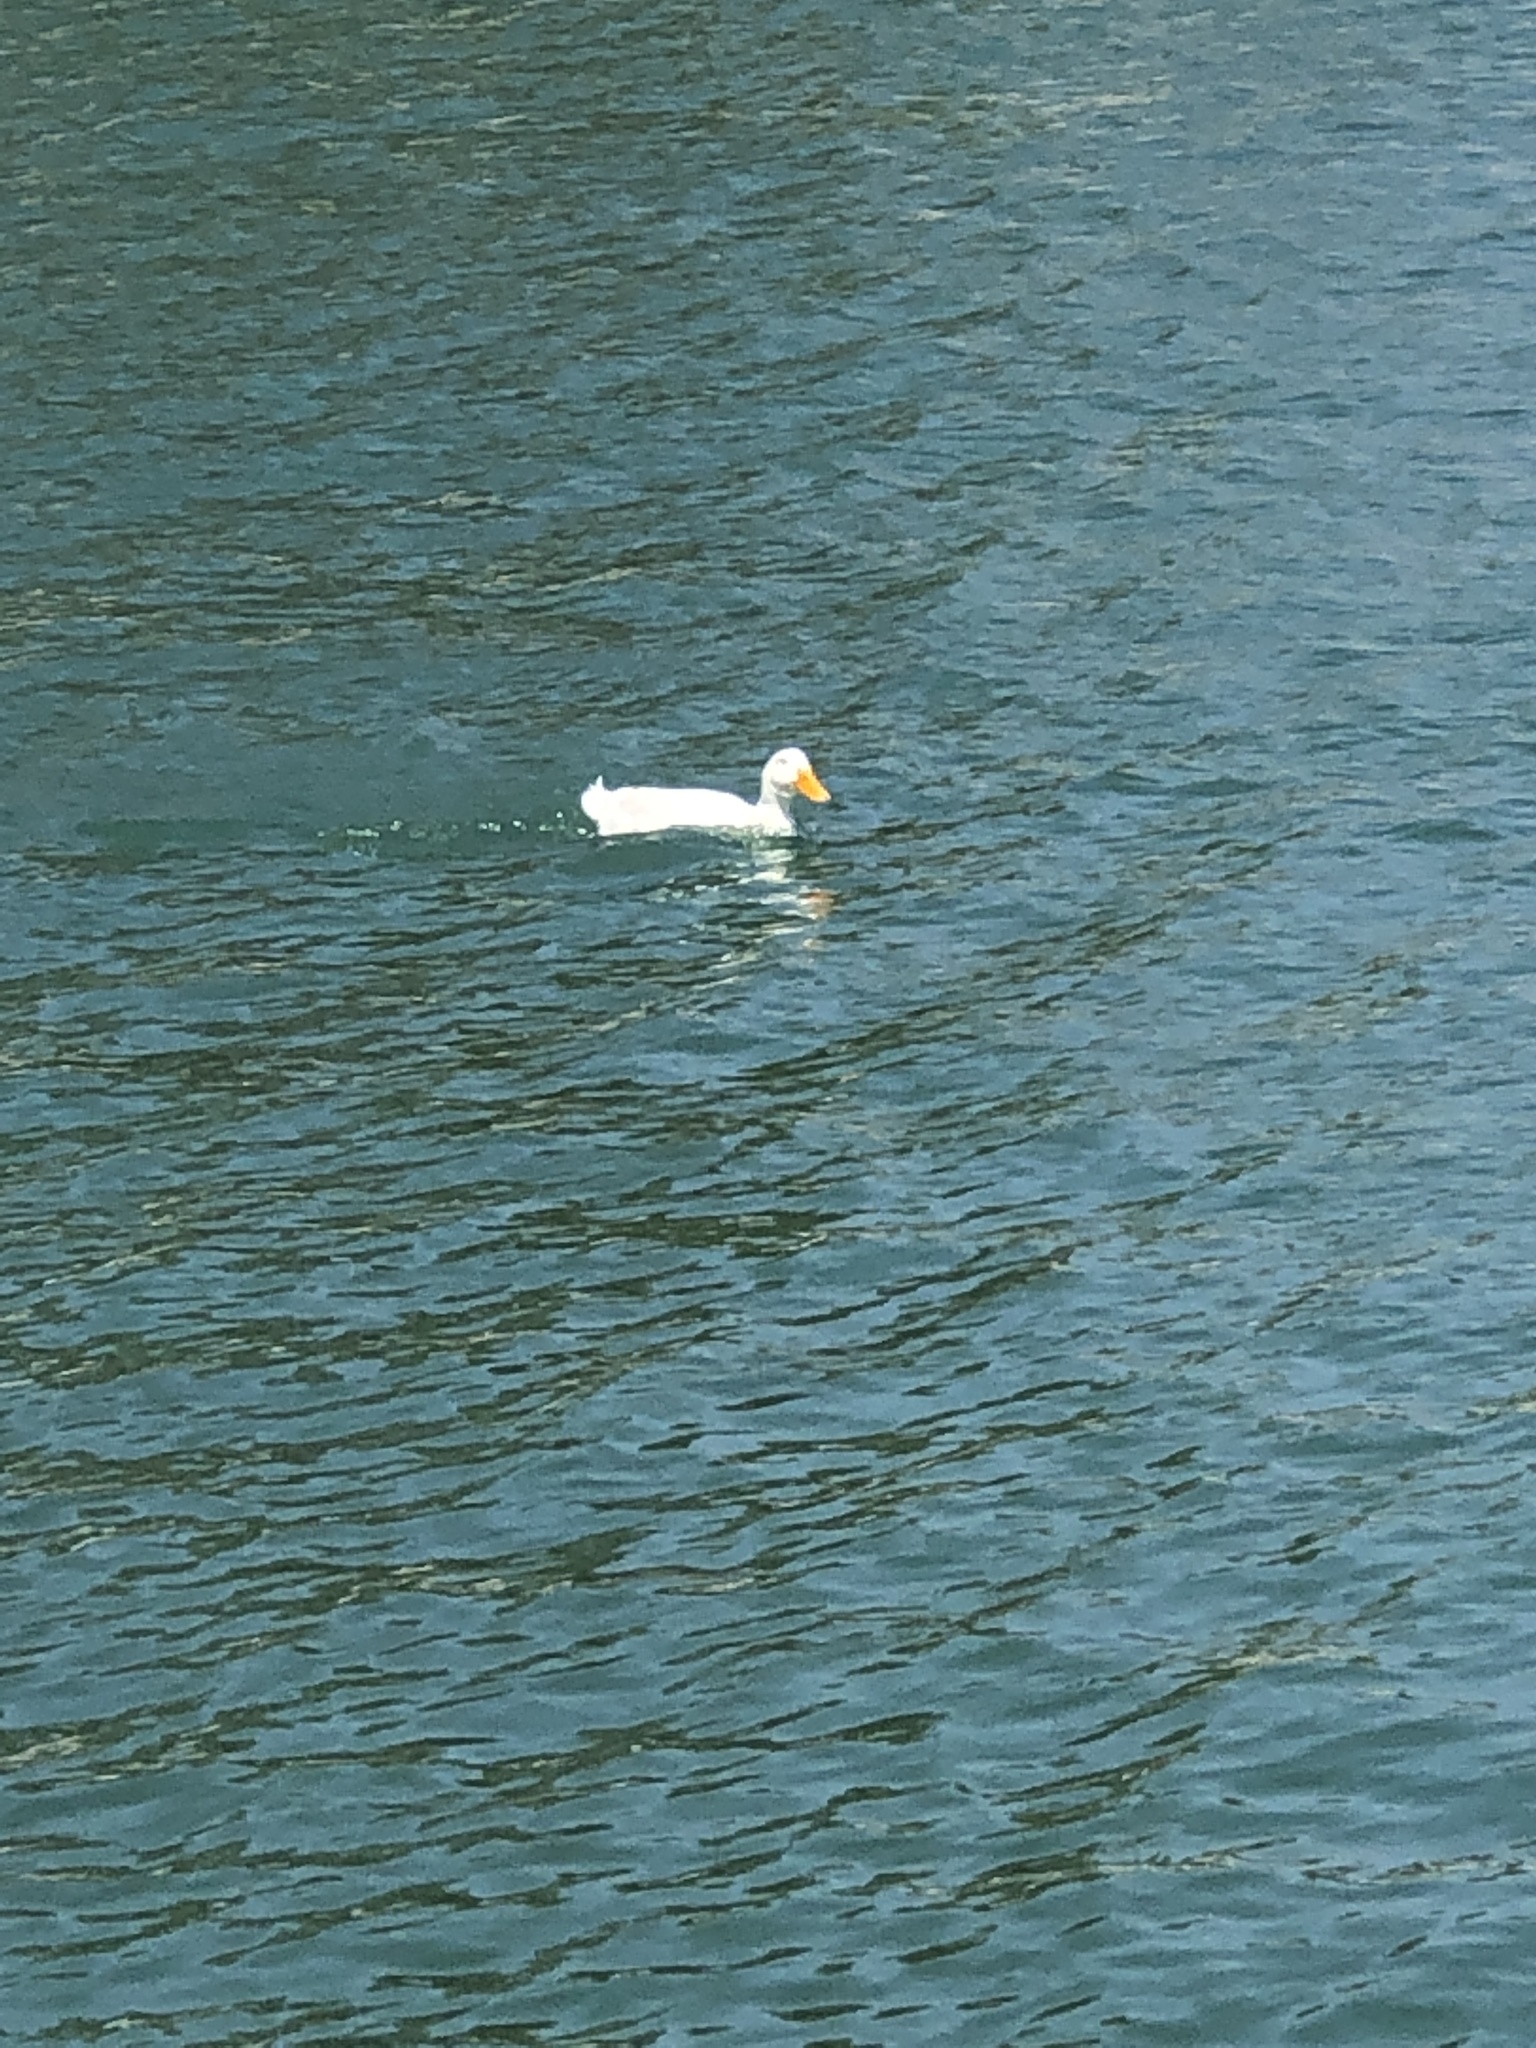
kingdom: Animalia
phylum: Chordata
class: Aves
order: Anseriformes
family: Anatidae
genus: Anas
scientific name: Anas platyrhynchos
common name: Mallard
